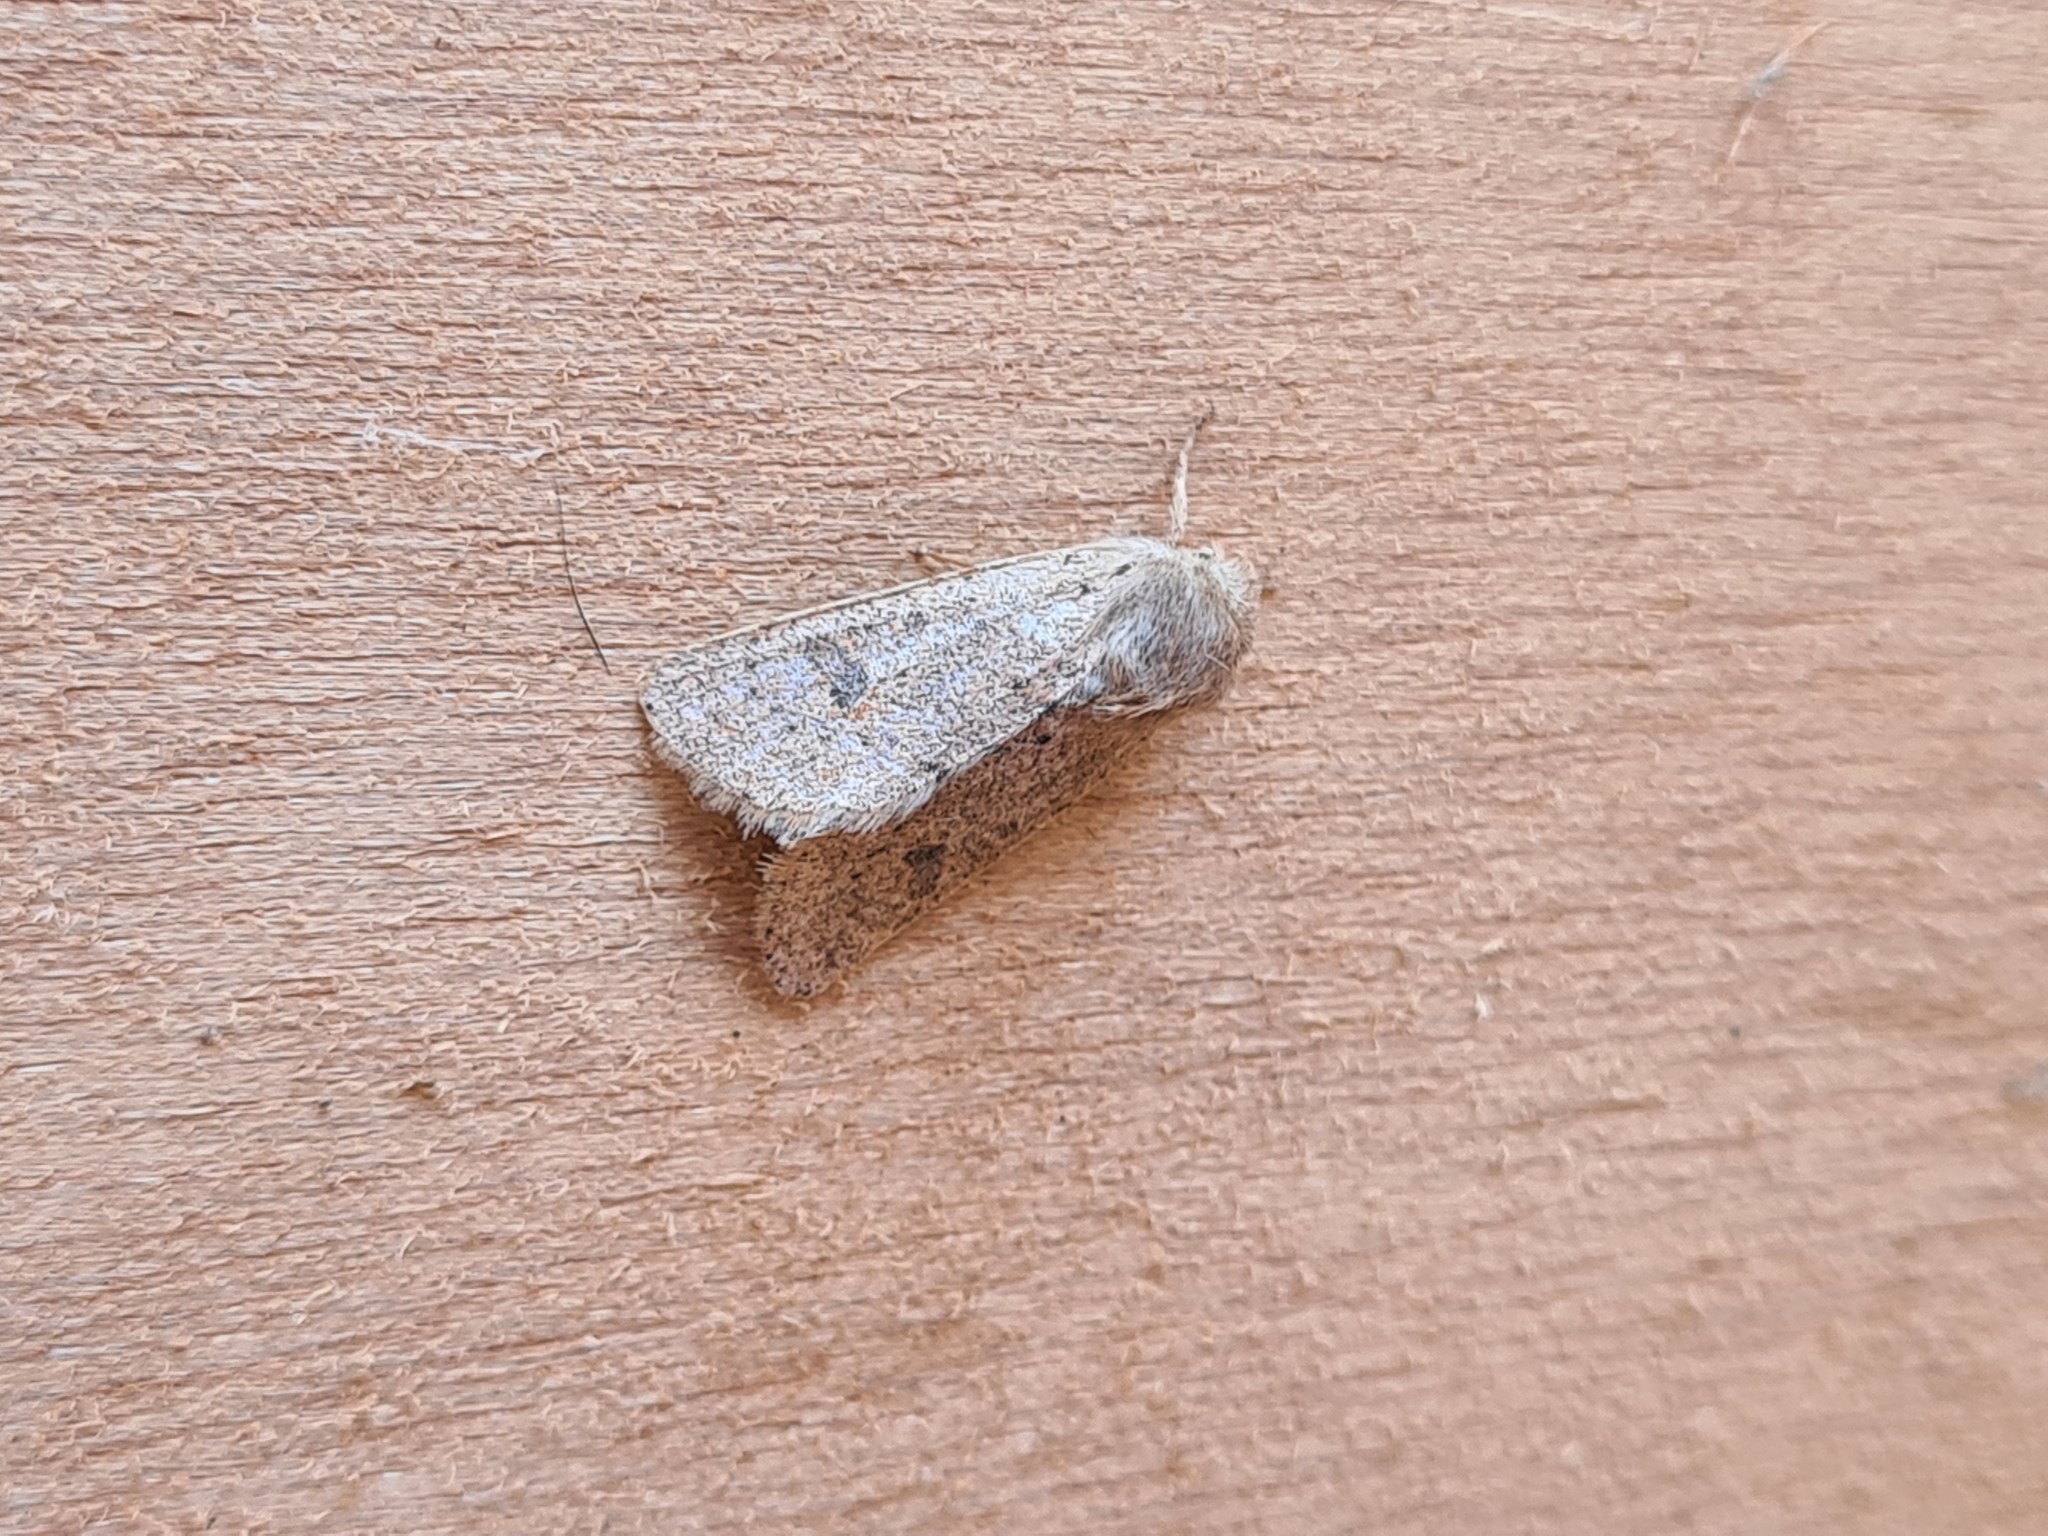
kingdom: Animalia
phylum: Arthropoda
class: Insecta
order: Lepidoptera
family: Noctuidae
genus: Orthosia
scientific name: Orthosia cruda
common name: Small quaker
